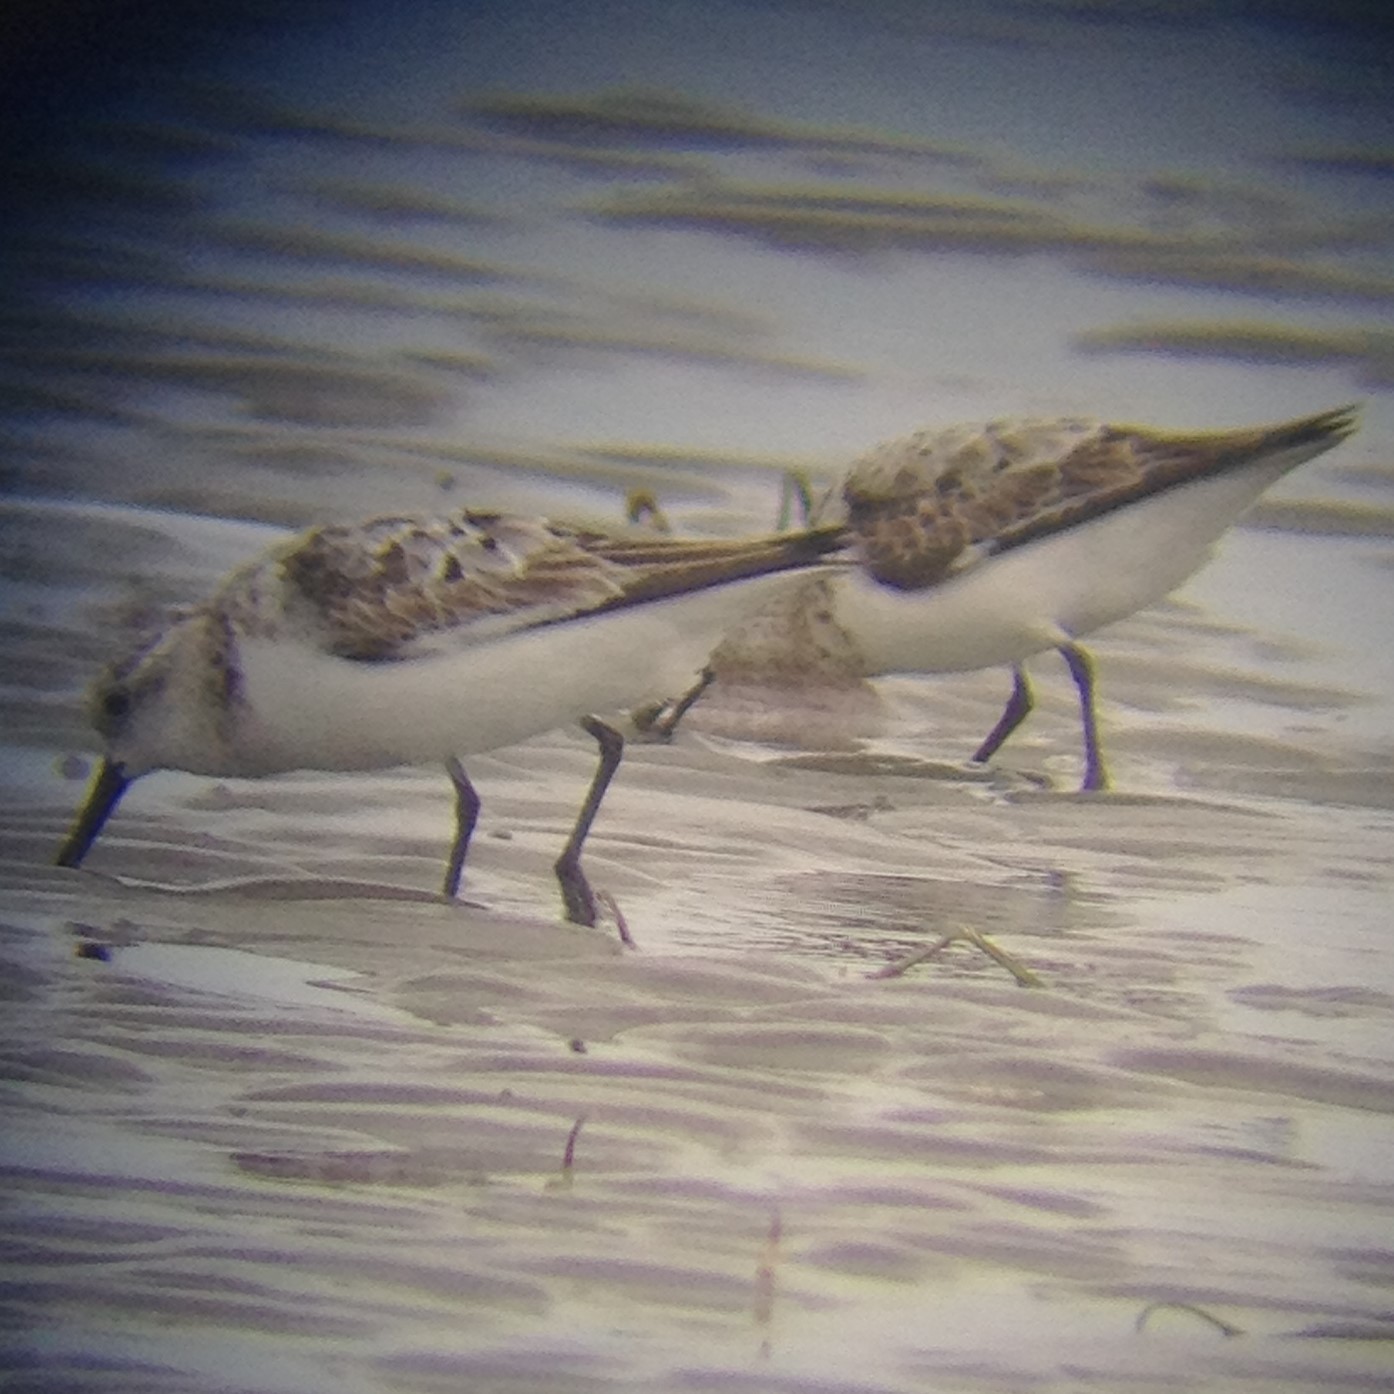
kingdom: Animalia
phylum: Chordata
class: Aves
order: Charadriiformes
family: Scolopacidae
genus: Calidris
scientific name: Calidris alba
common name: Sanderling
